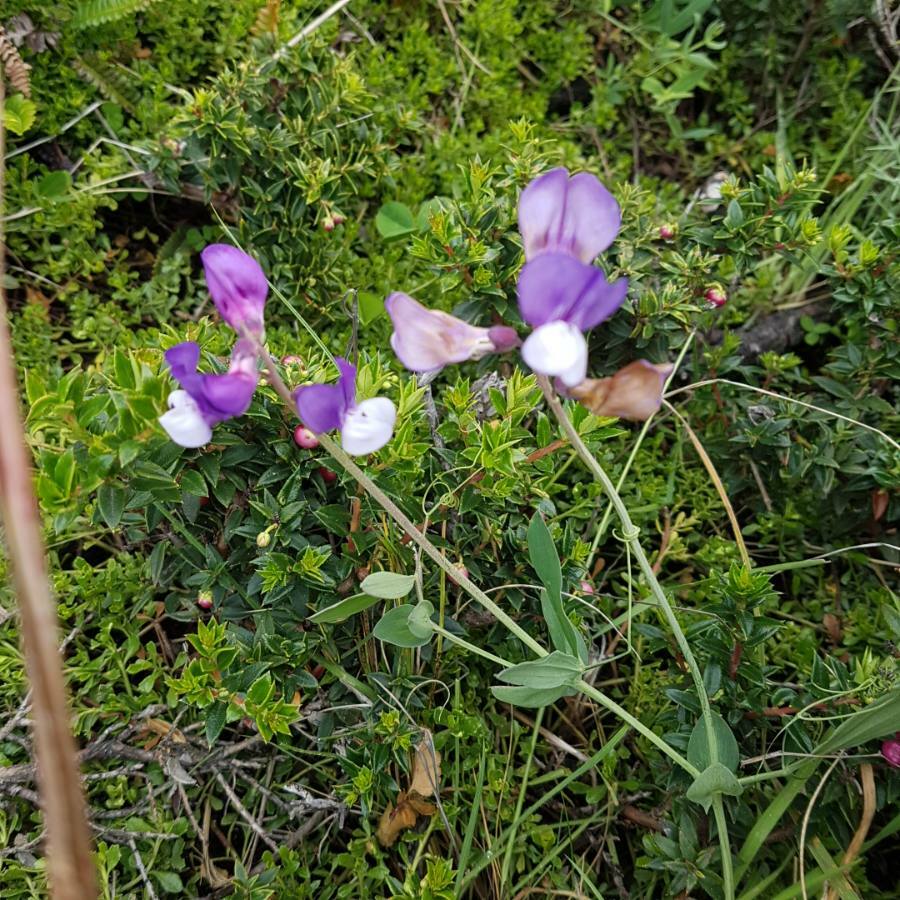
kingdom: Plantae
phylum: Tracheophyta
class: Magnoliopsida
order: Fabales
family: Fabaceae
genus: Lathyrus
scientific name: Lathyrus magellanicus
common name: Lord anson's pea
